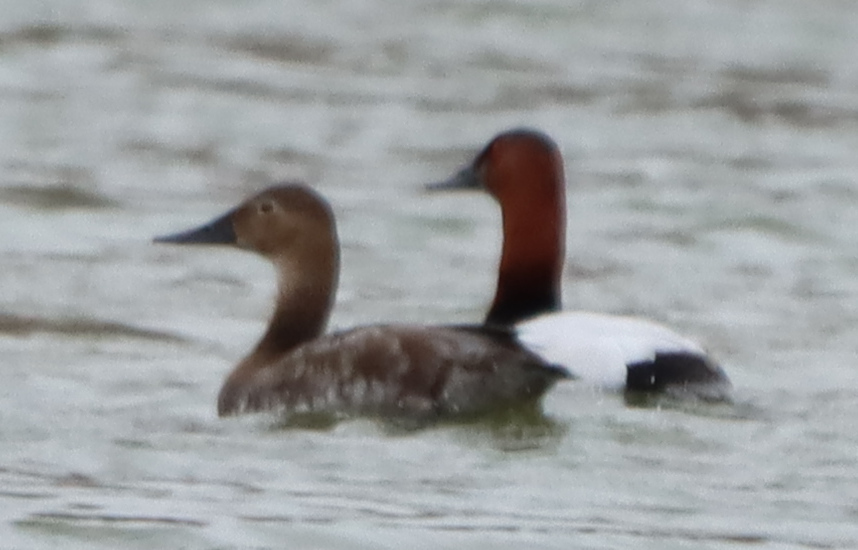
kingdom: Animalia
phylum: Chordata
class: Aves
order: Anseriformes
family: Anatidae
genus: Aythya
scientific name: Aythya valisineria
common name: Canvasback
